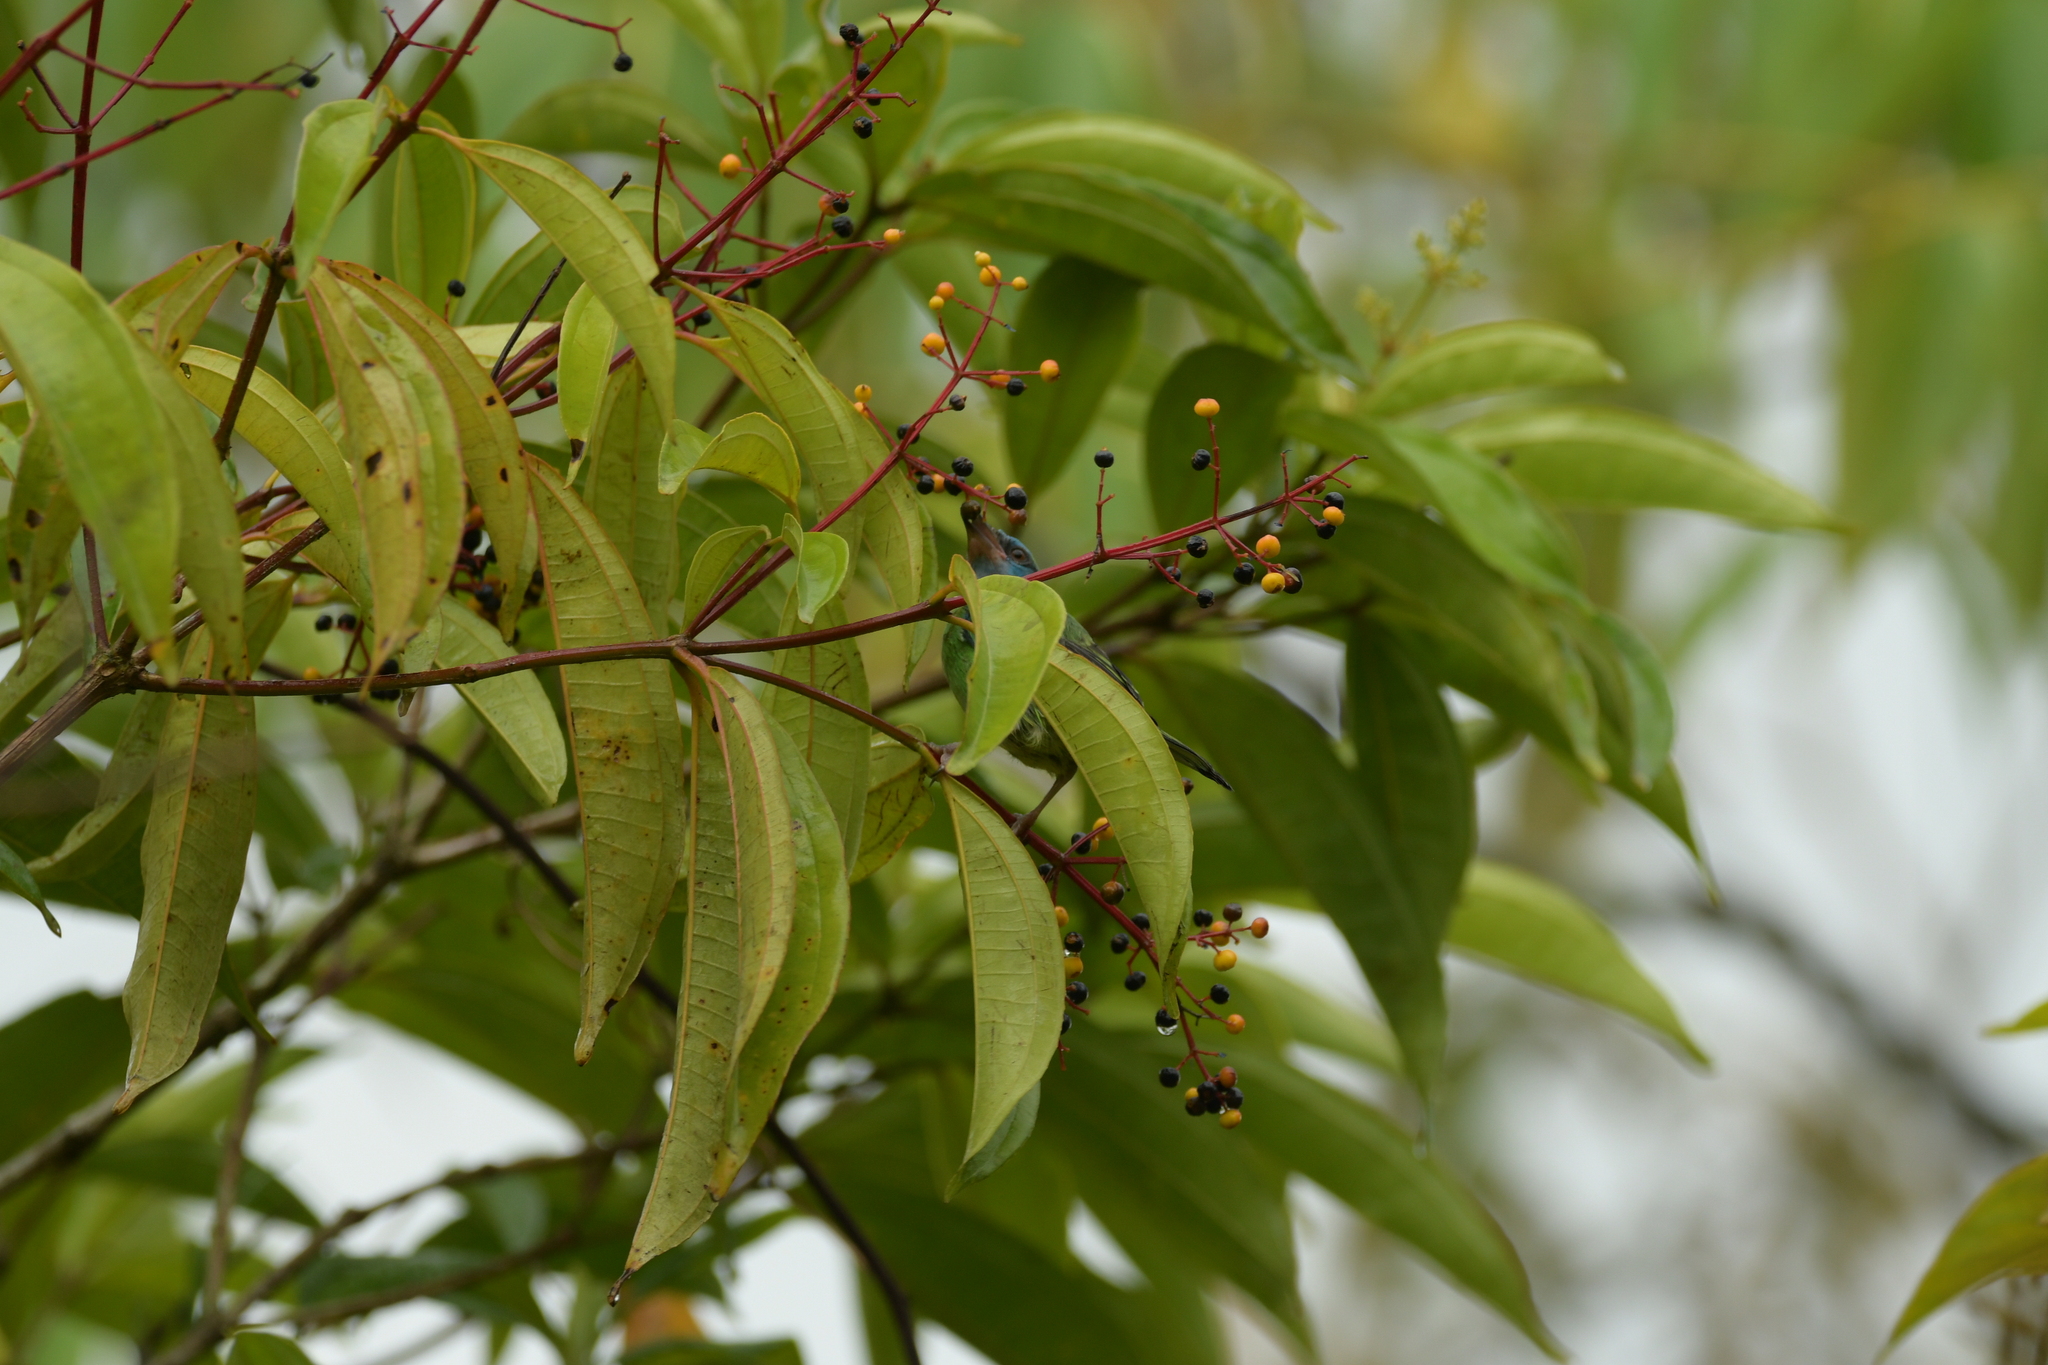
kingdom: Animalia
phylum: Chordata
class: Aves
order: Passeriformes
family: Thraupidae
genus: Dacnis
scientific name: Dacnis cayana
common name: Blue dacnis
